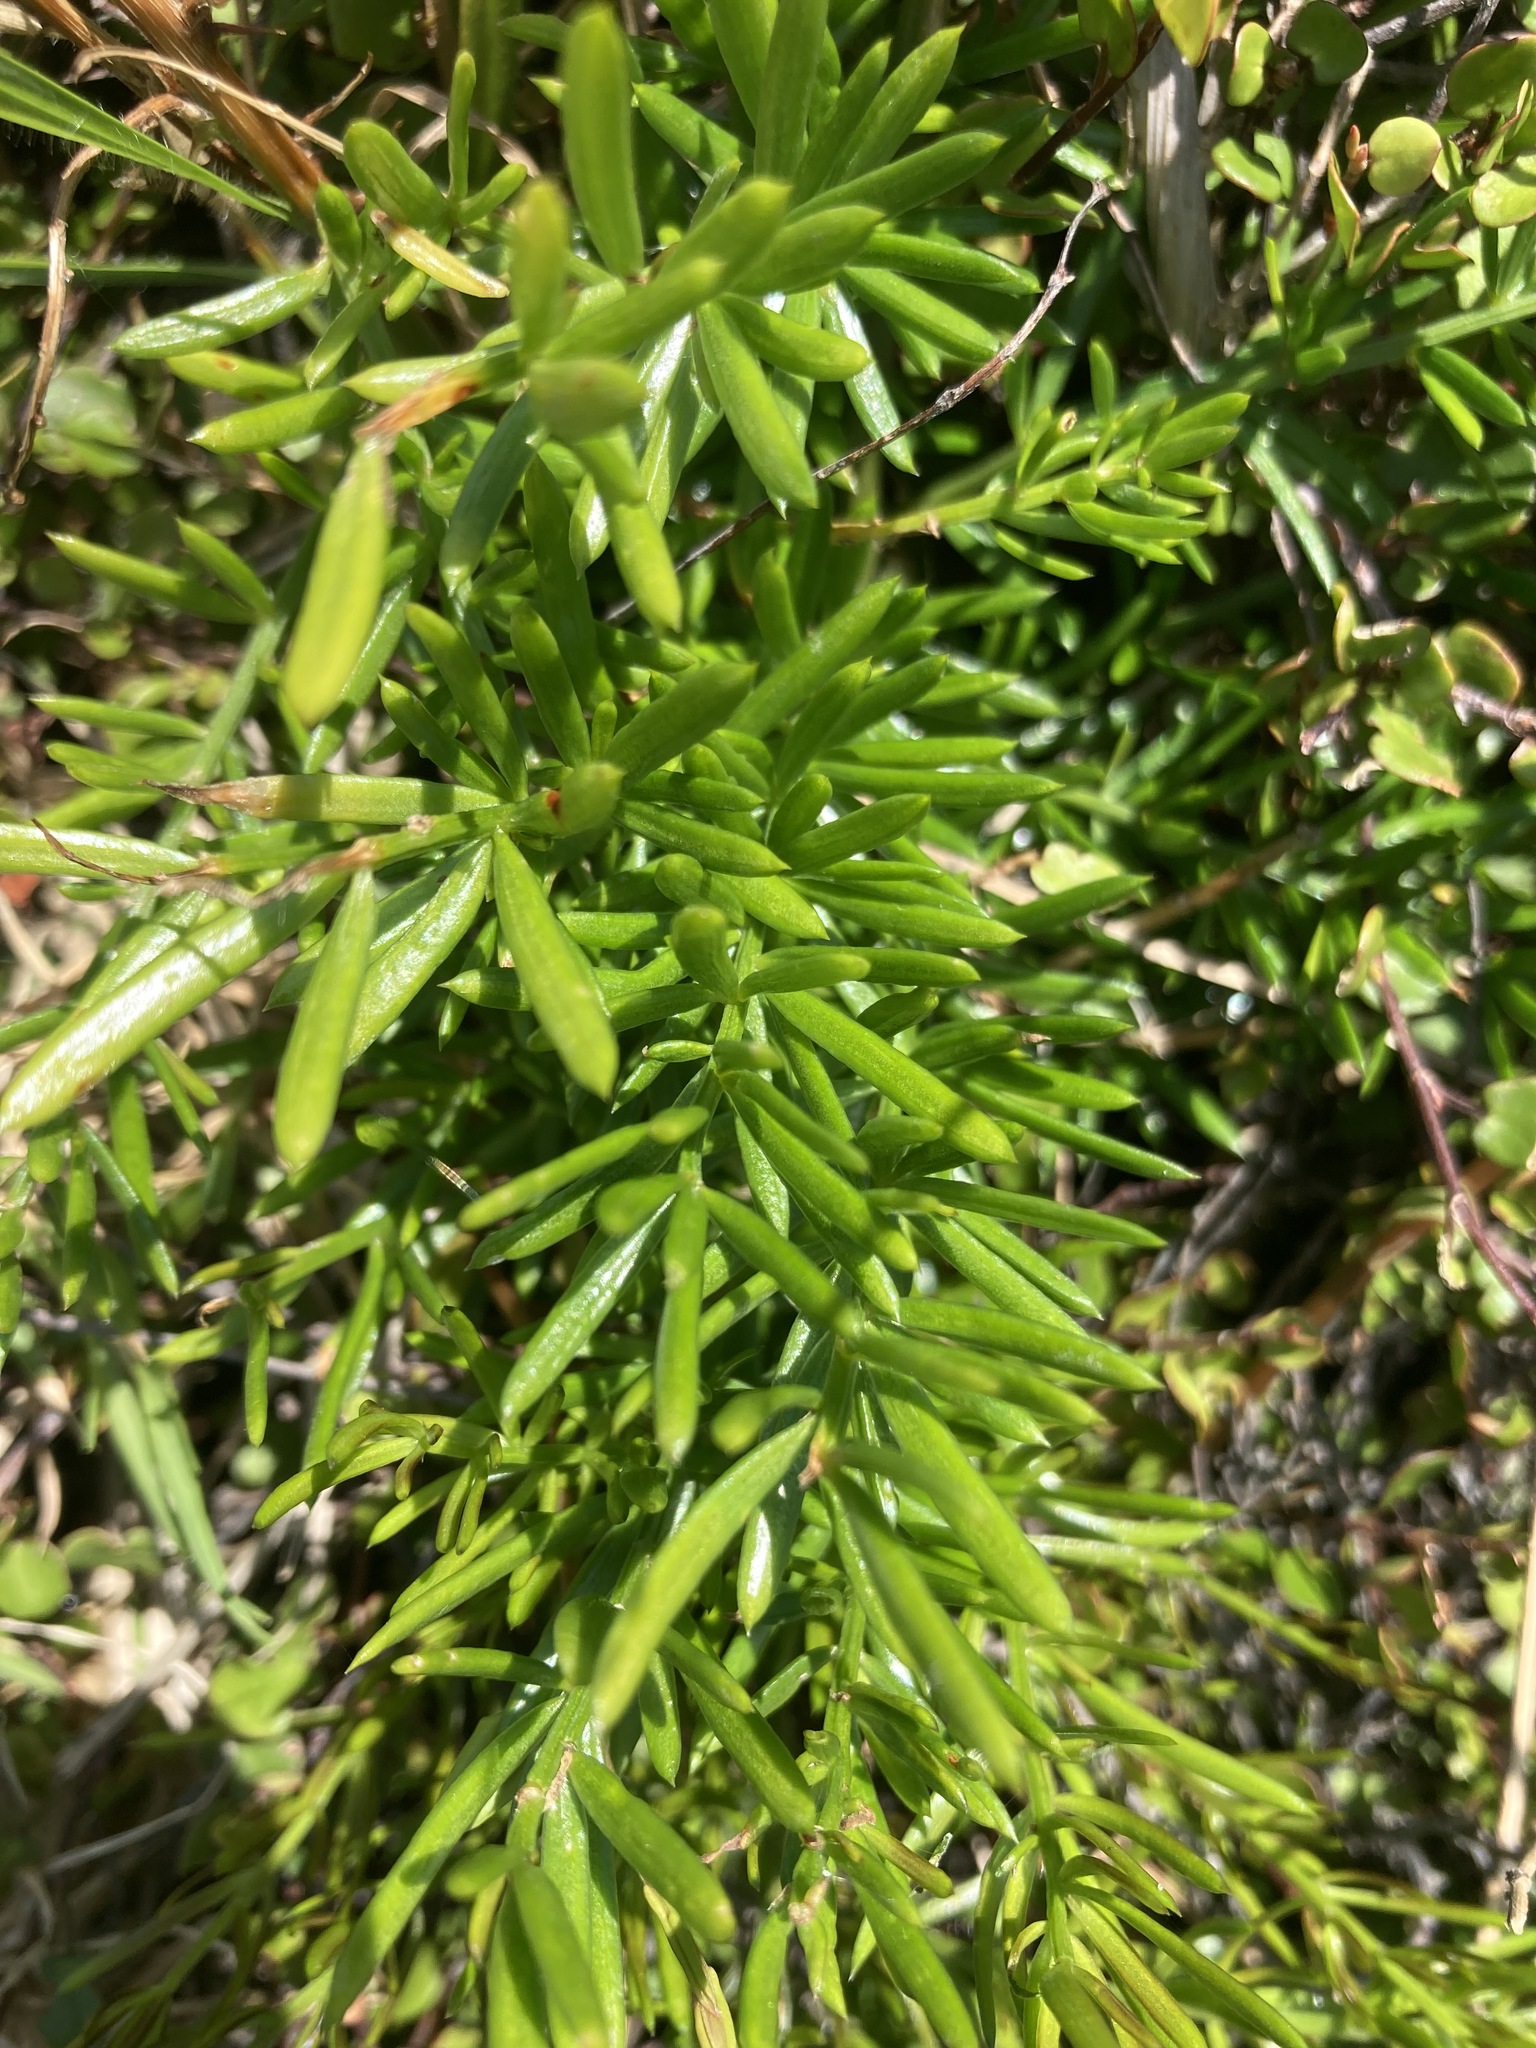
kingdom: Plantae
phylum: Tracheophyta
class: Liliopsida
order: Asparagales
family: Asparagaceae
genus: Asparagus
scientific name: Asparagus aethiopicus
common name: Sprenger's asparagus fern
